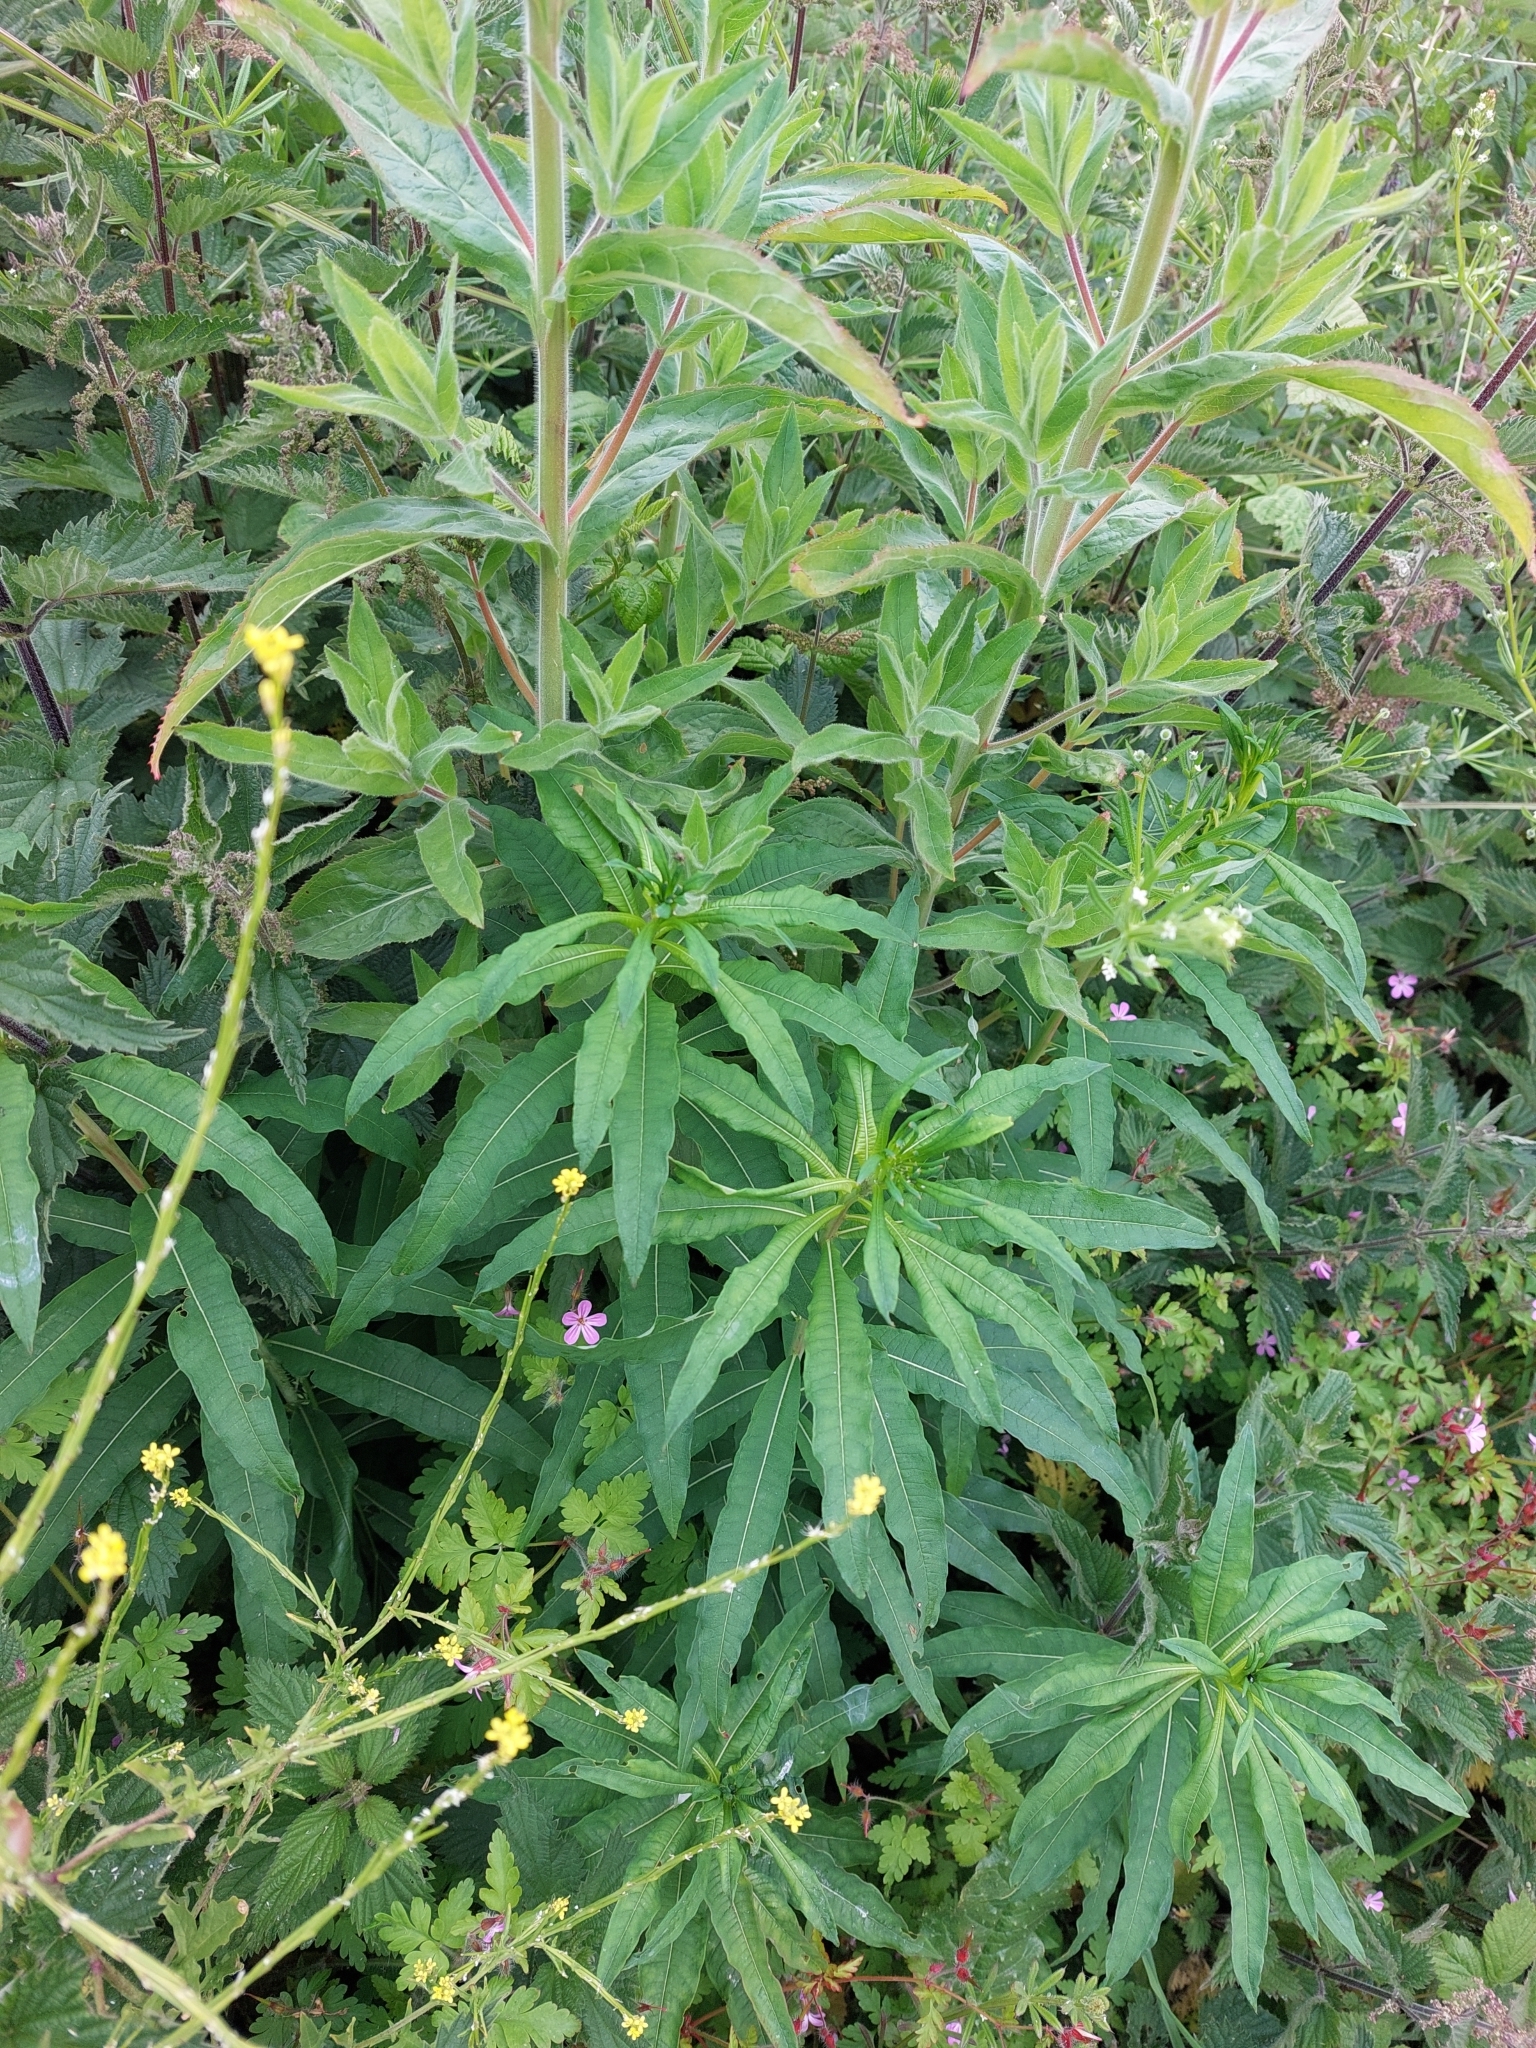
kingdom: Plantae
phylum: Tracheophyta
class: Magnoliopsida
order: Myrtales
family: Onagraceae
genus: Chamaenerion
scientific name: Chamaenerion angustifolium
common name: Fireweed
